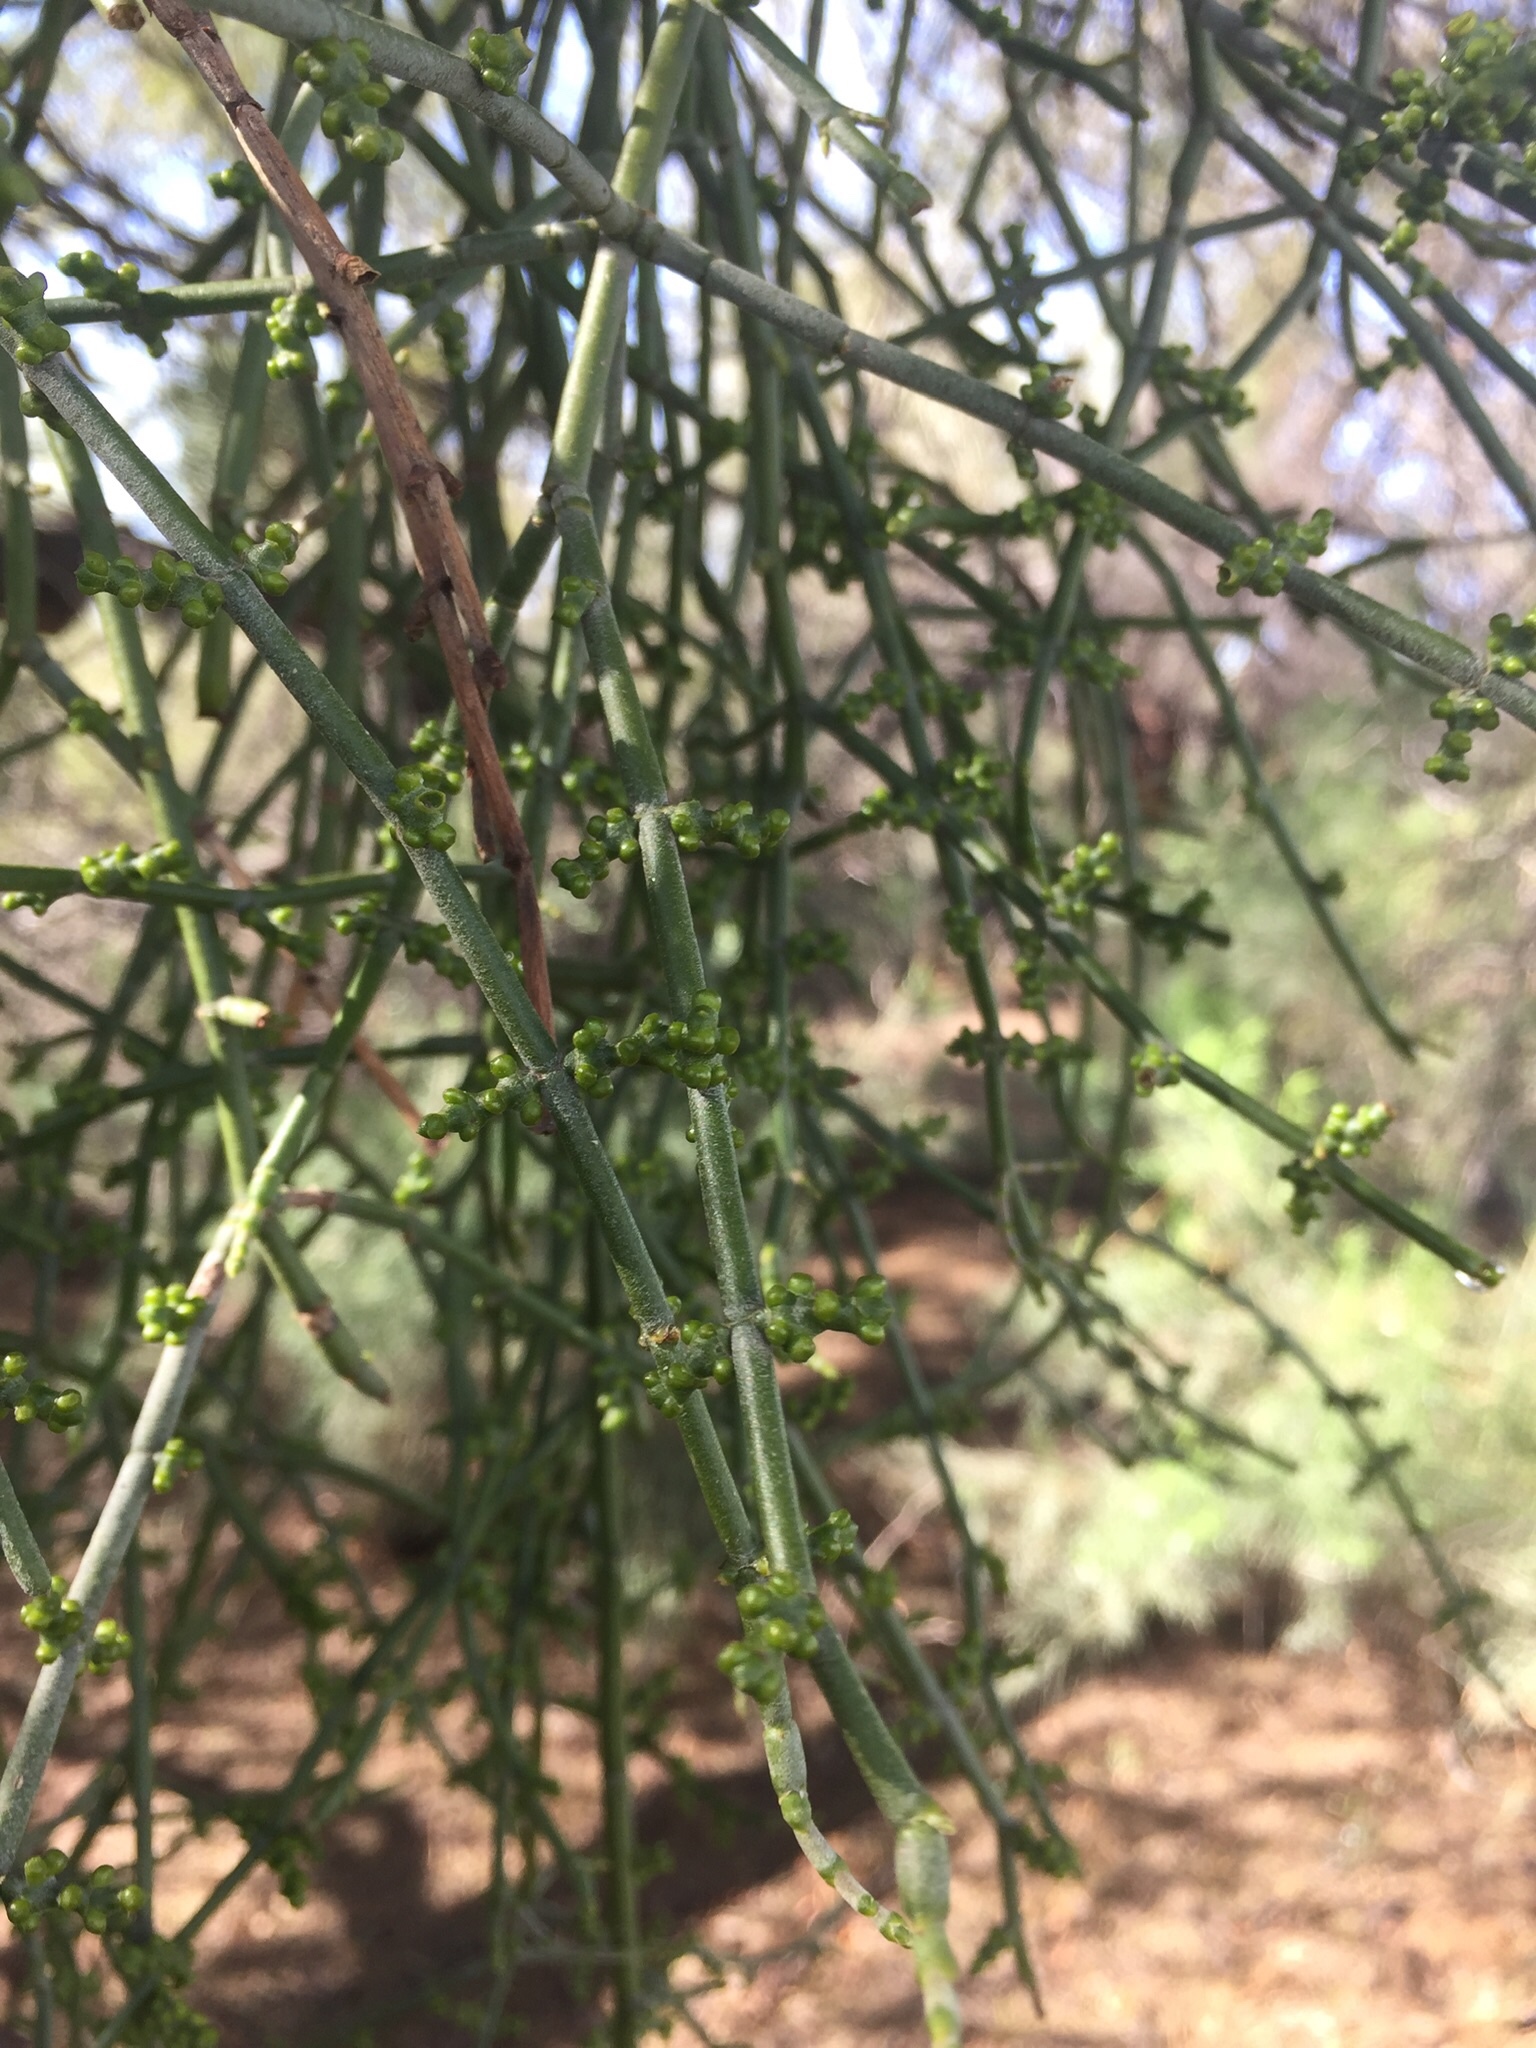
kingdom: Plantae
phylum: Tracheophyta
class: Magnoliopsida
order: Santalales
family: Viscaceae
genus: Phoradendron
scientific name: Phoradendron californicum
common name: Acacia mistletoe
